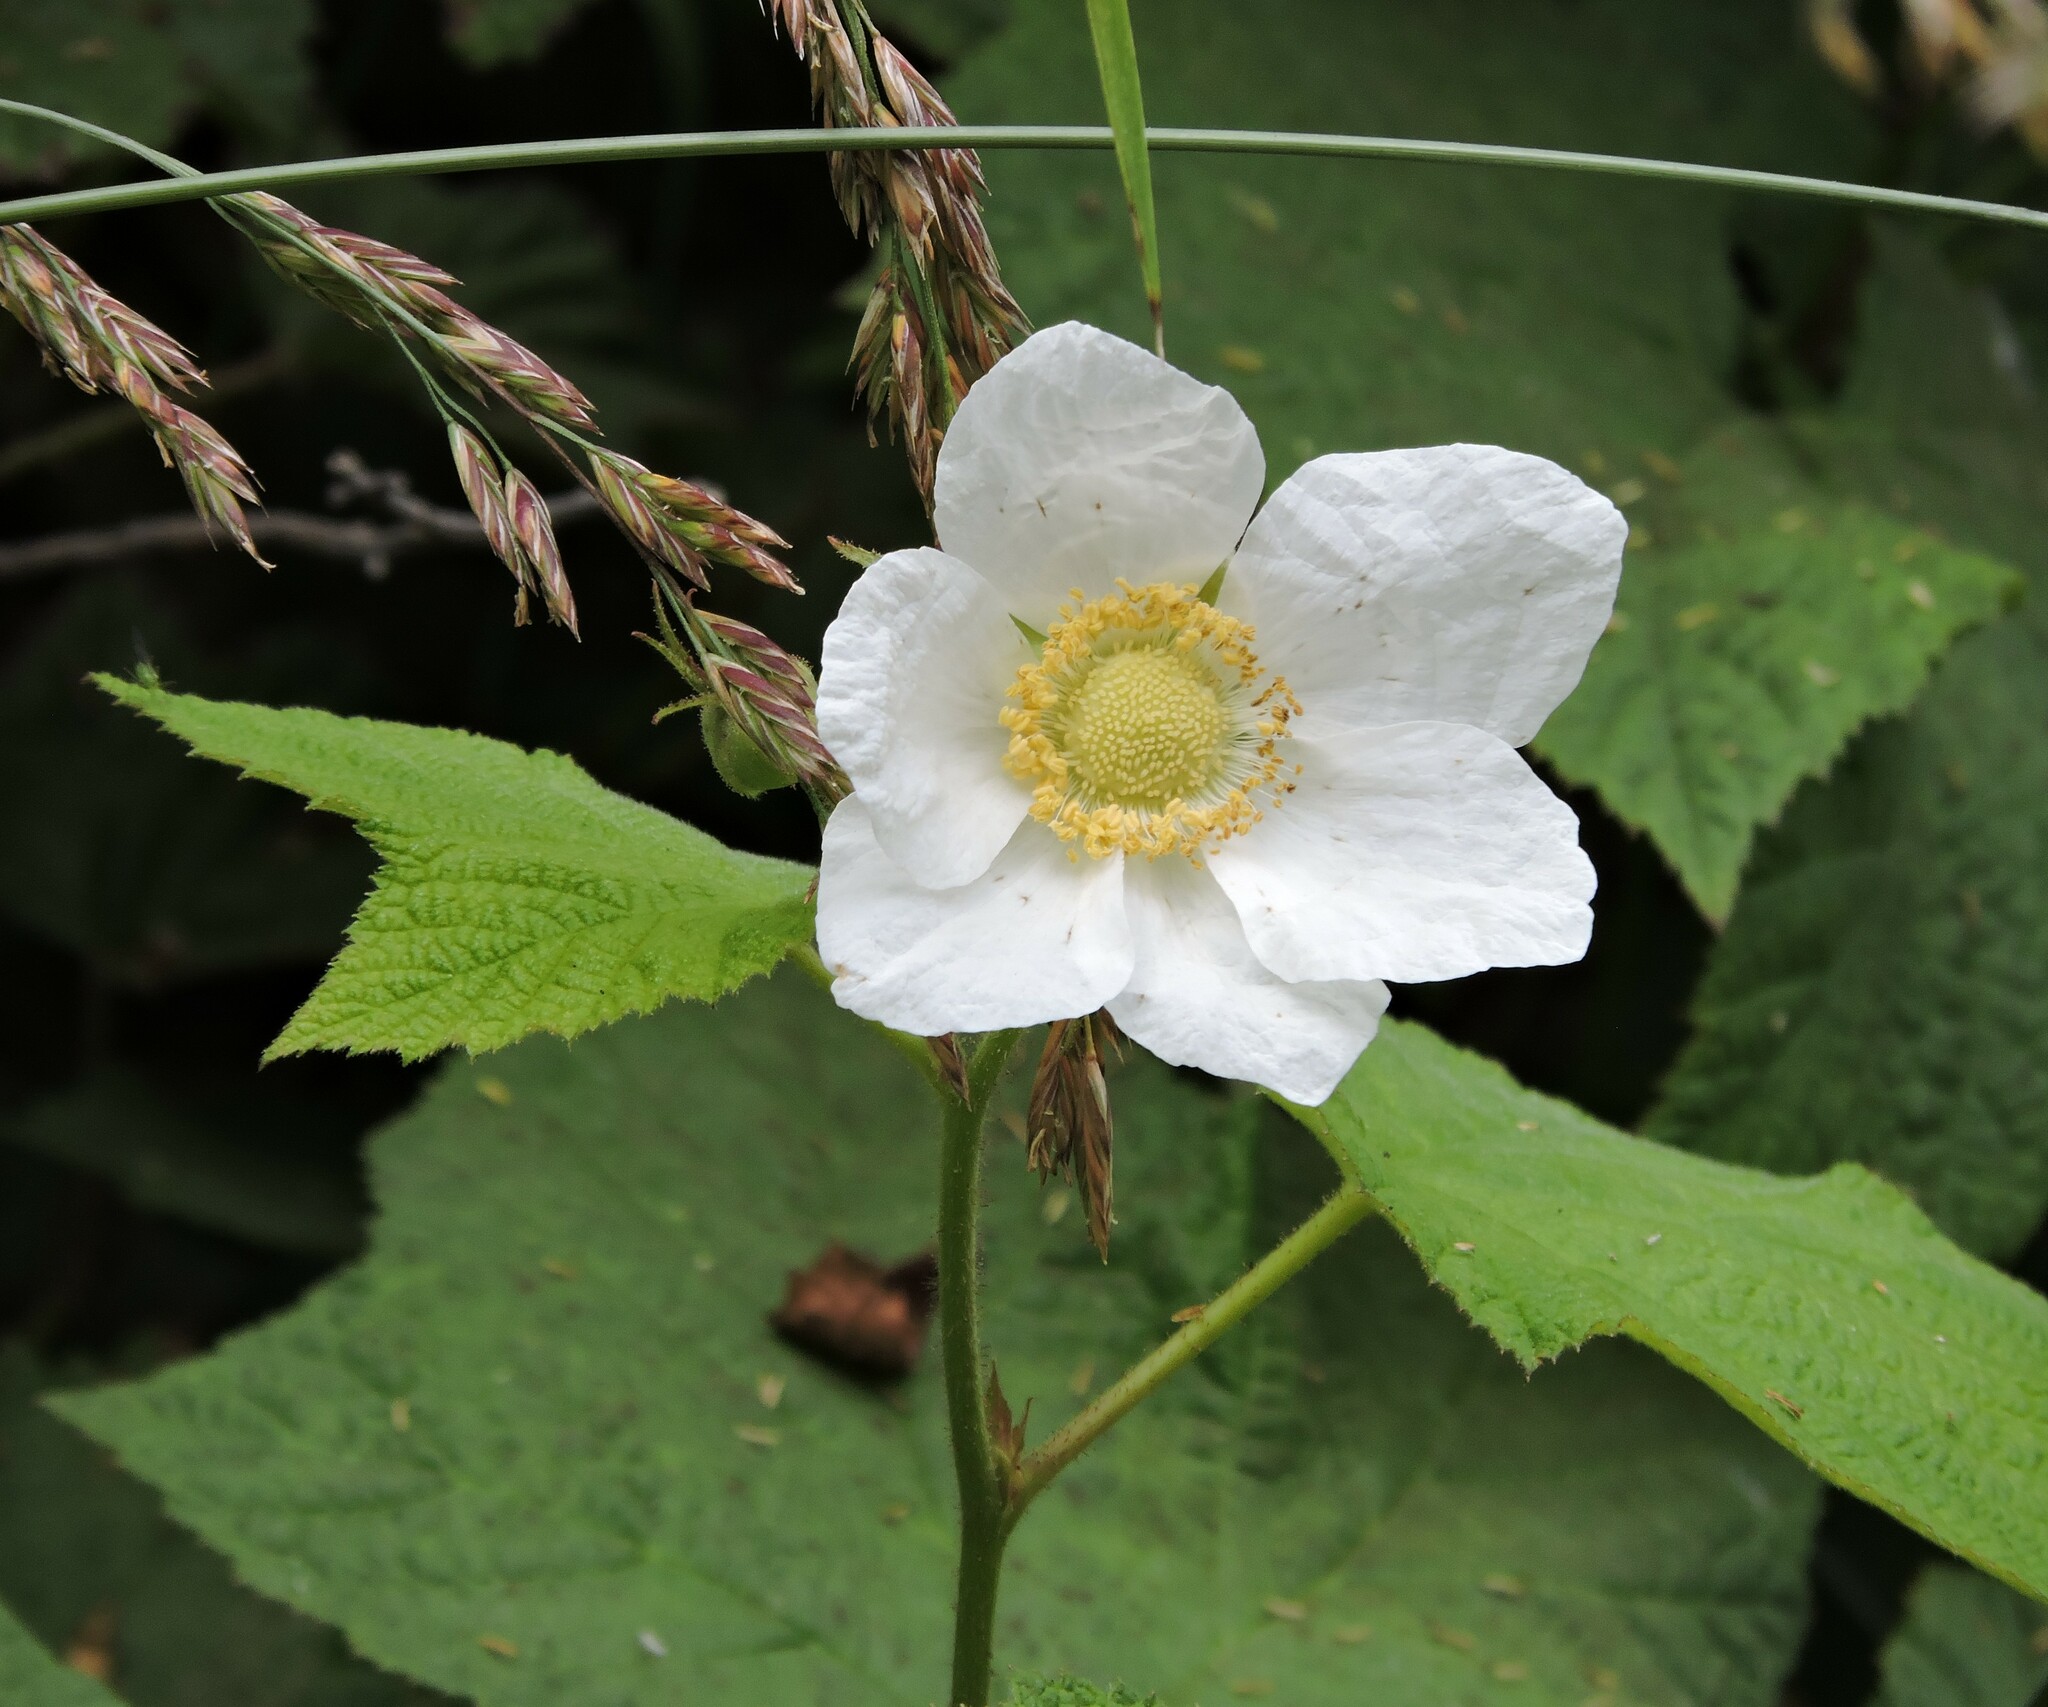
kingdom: Plantae
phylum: Tracheophyta
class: Magnoliopsida
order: Rosales
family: Rosaceae
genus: Rubus
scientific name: Rubus parviflorus
